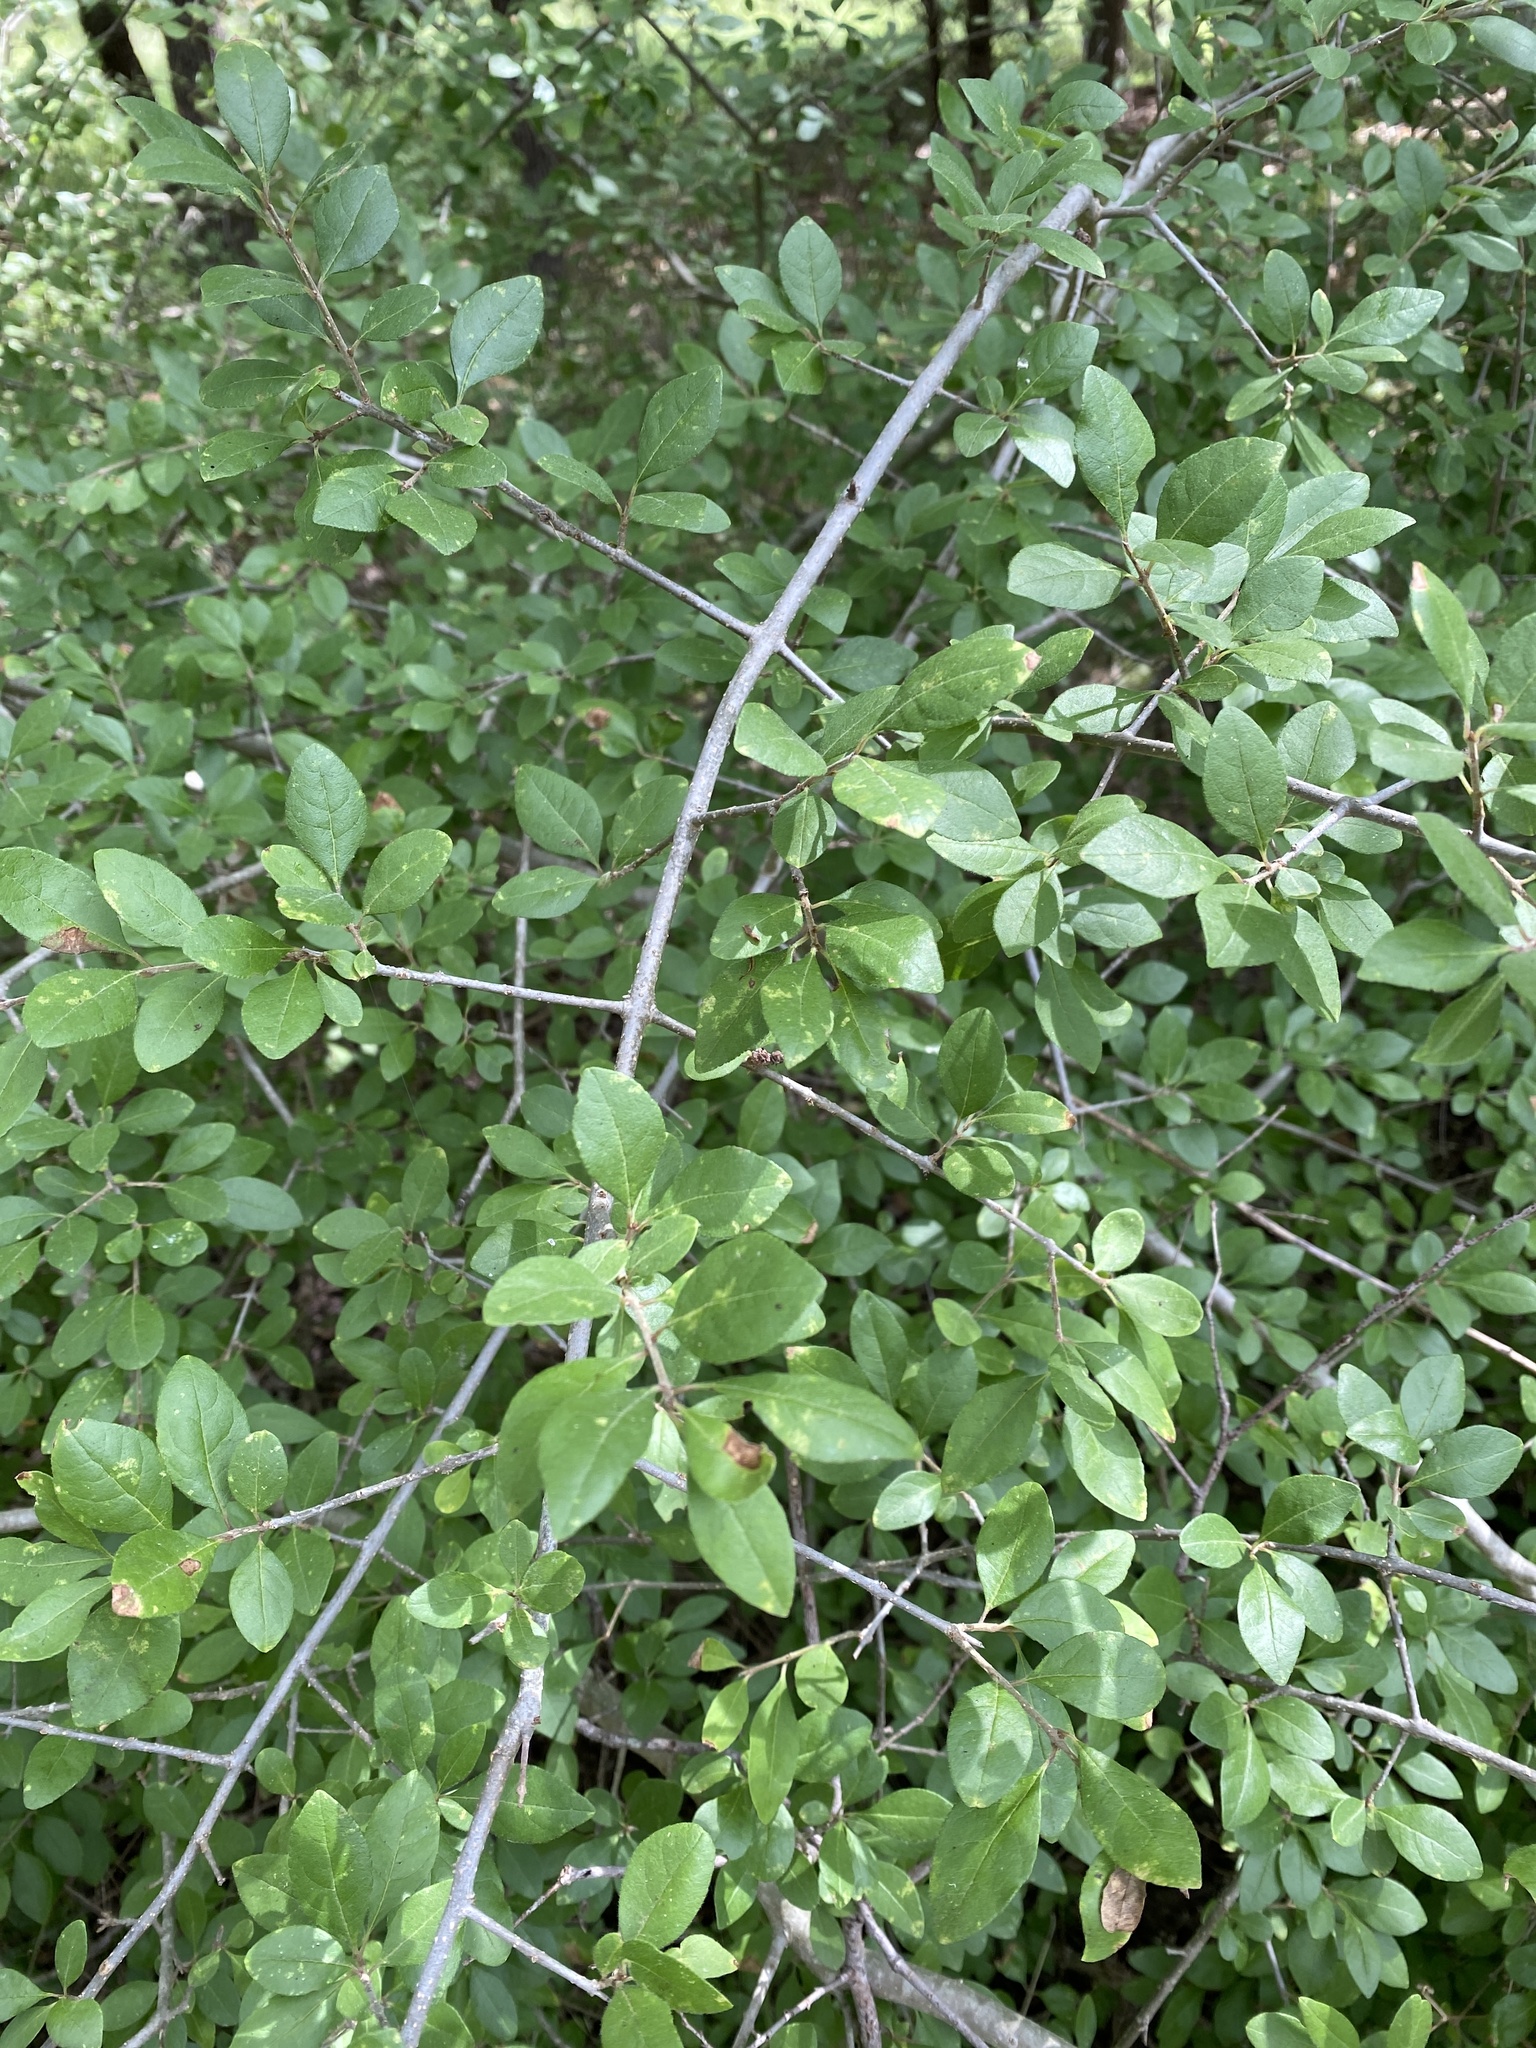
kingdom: Plantae
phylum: Tracheophyta
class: Magnoliopsida
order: Lamiales
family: Oleaceae
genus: Forestiera
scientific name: Forestiera pubescens
